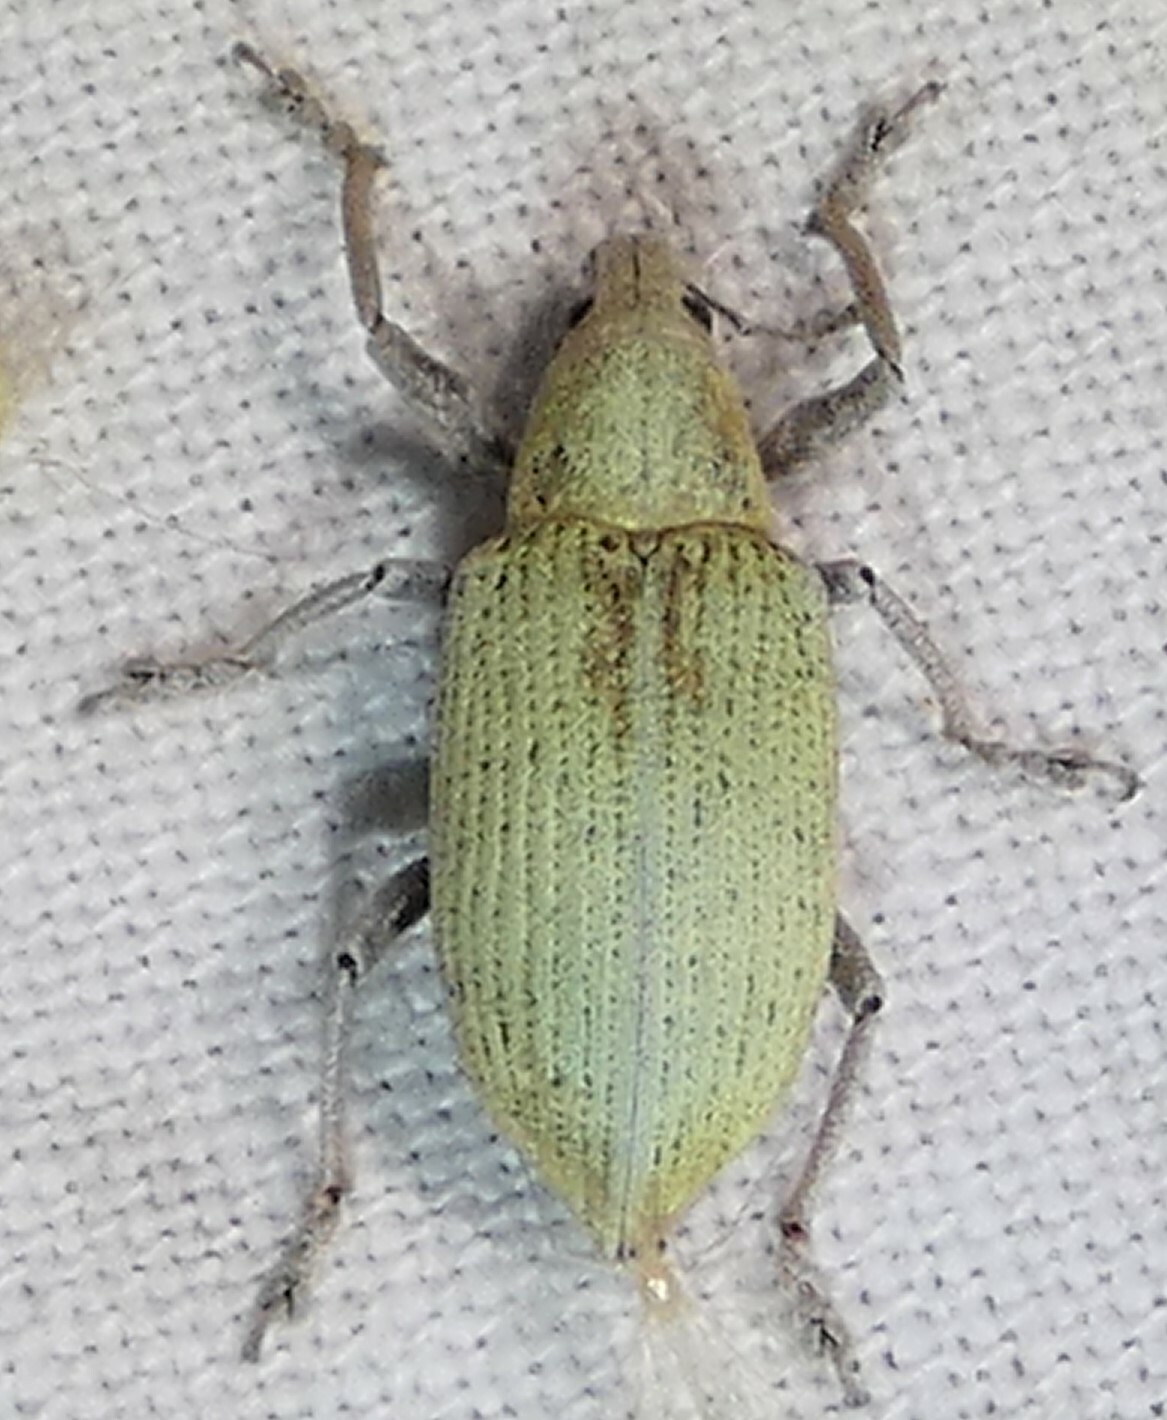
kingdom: Animalia
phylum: Arthropoda
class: Insecta
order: Coleoptera
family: Curculionidae
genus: Pachnaeus
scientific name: Pachnaeus opalus
